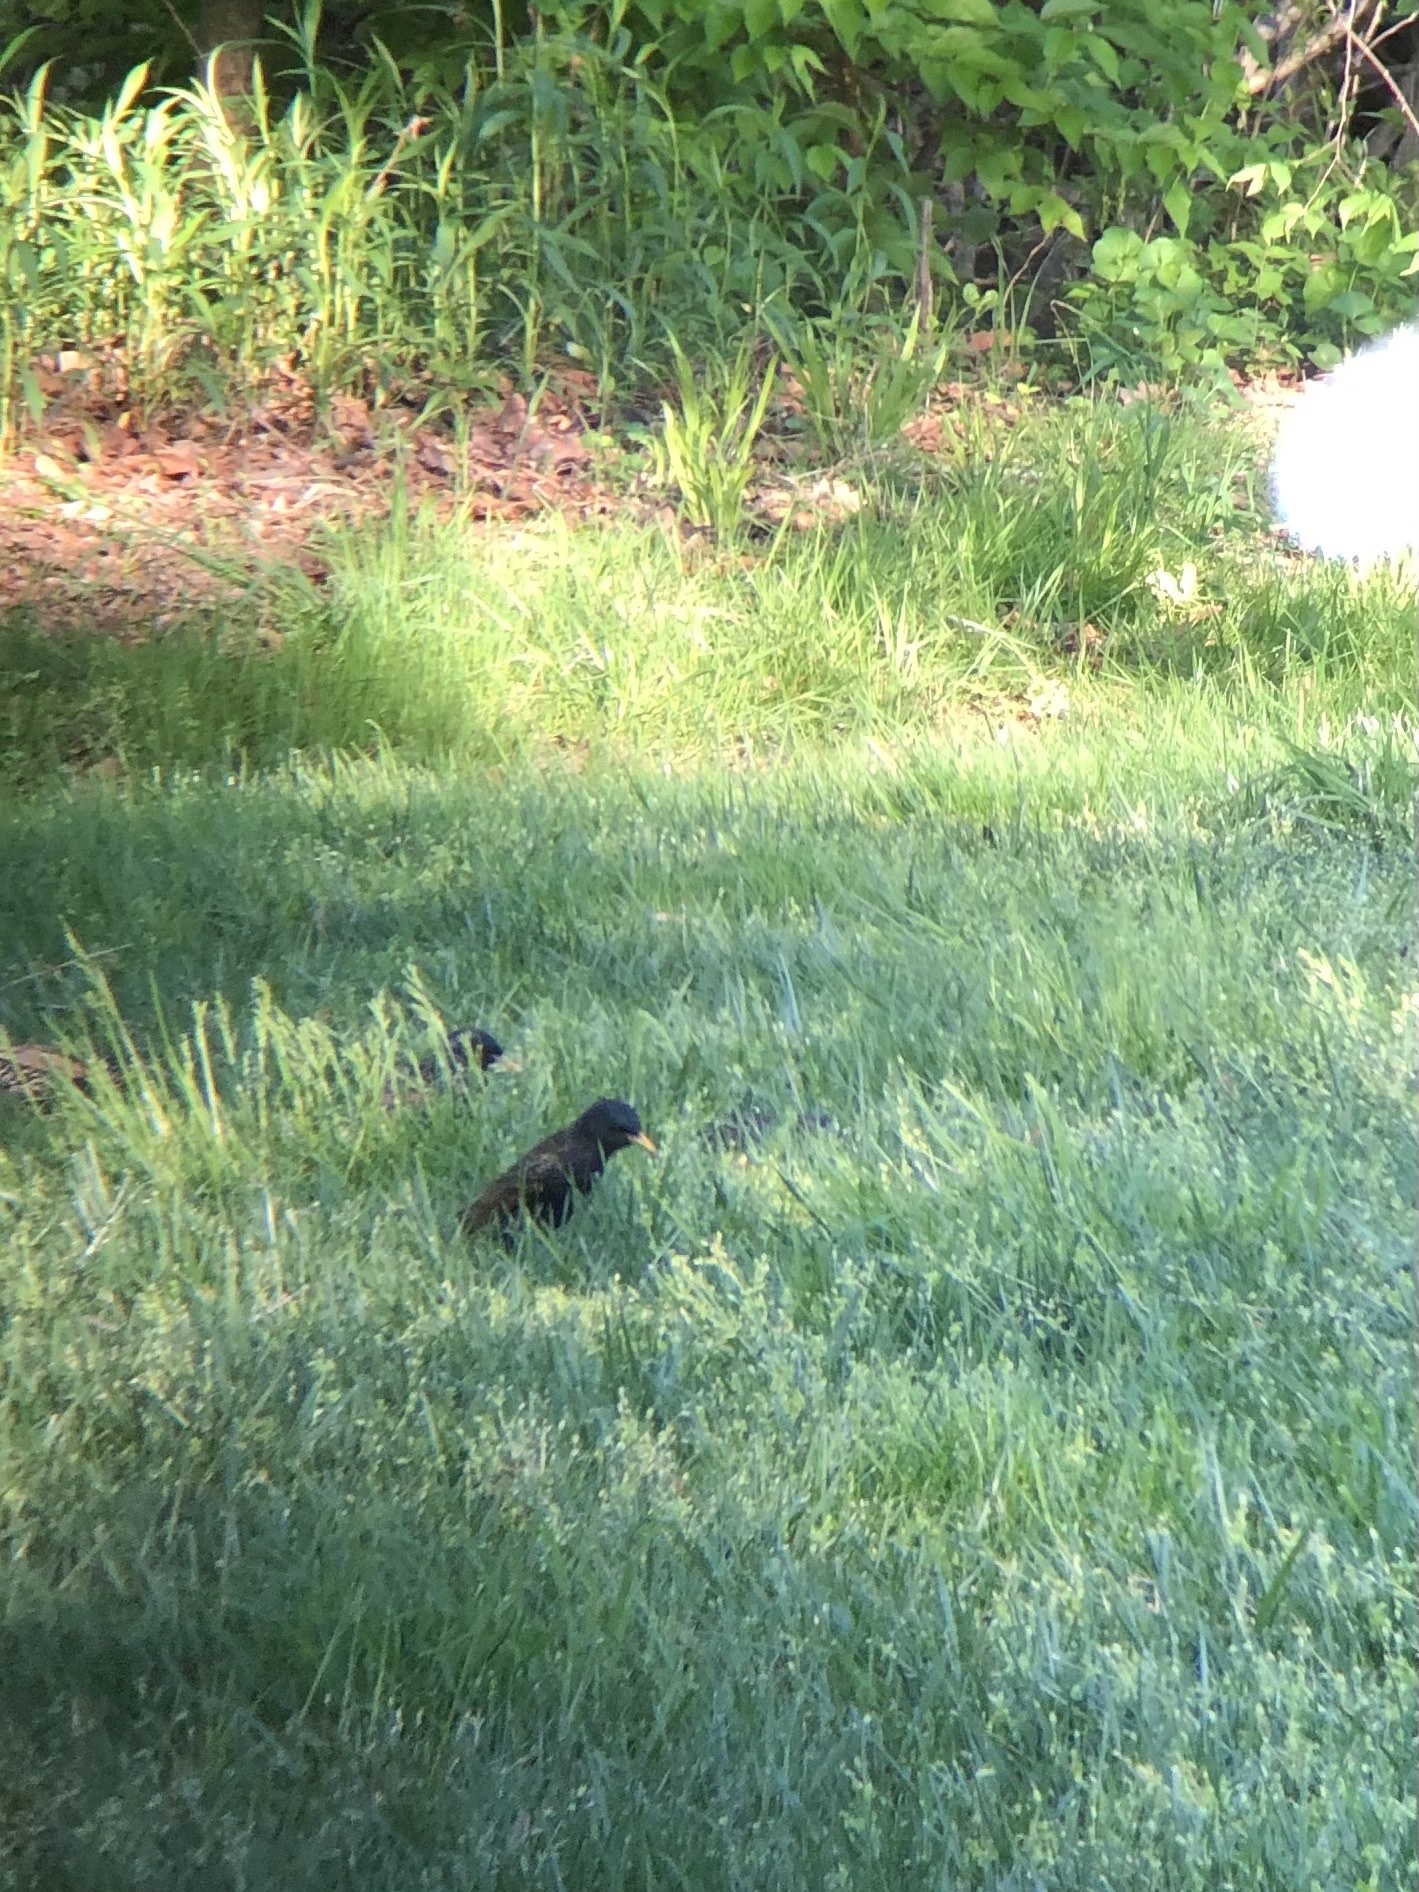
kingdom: Animalia
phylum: Chordata
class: Aves
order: Passeriformes
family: Sturnidae
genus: Sturnus
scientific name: Sturnus vulgaris
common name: Common starling
